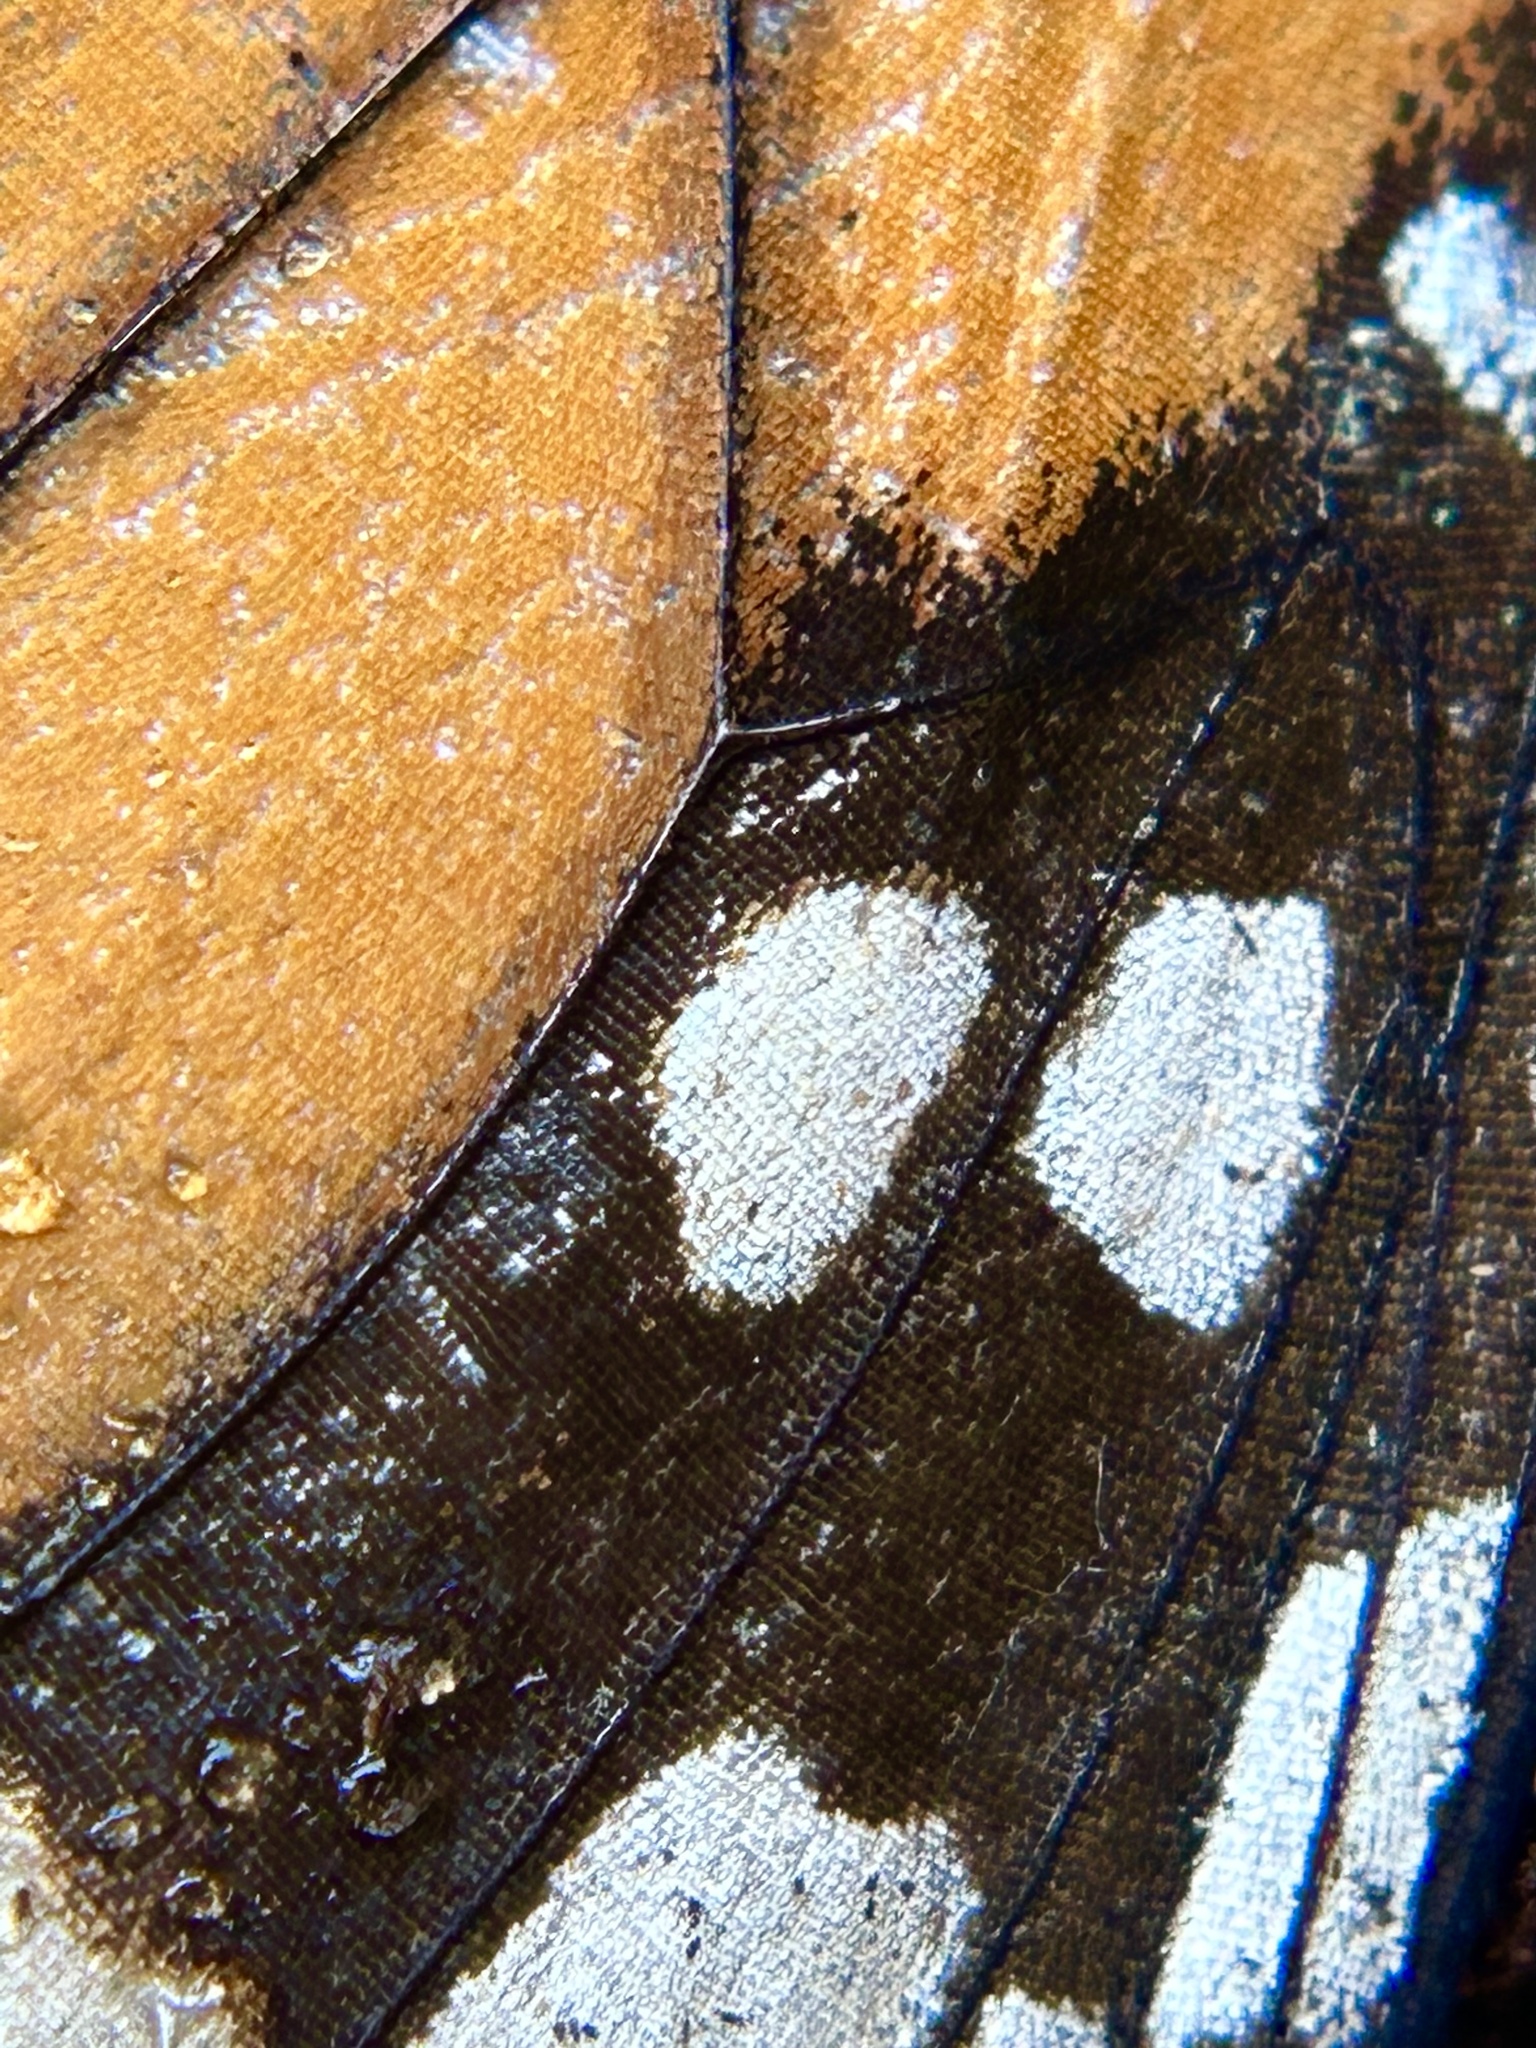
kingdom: Animalia
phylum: Arthropoda
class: Insecta
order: Lepidoptera
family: Nymphalidae
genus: Danaus
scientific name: Danaus plexippus
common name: Monarch
